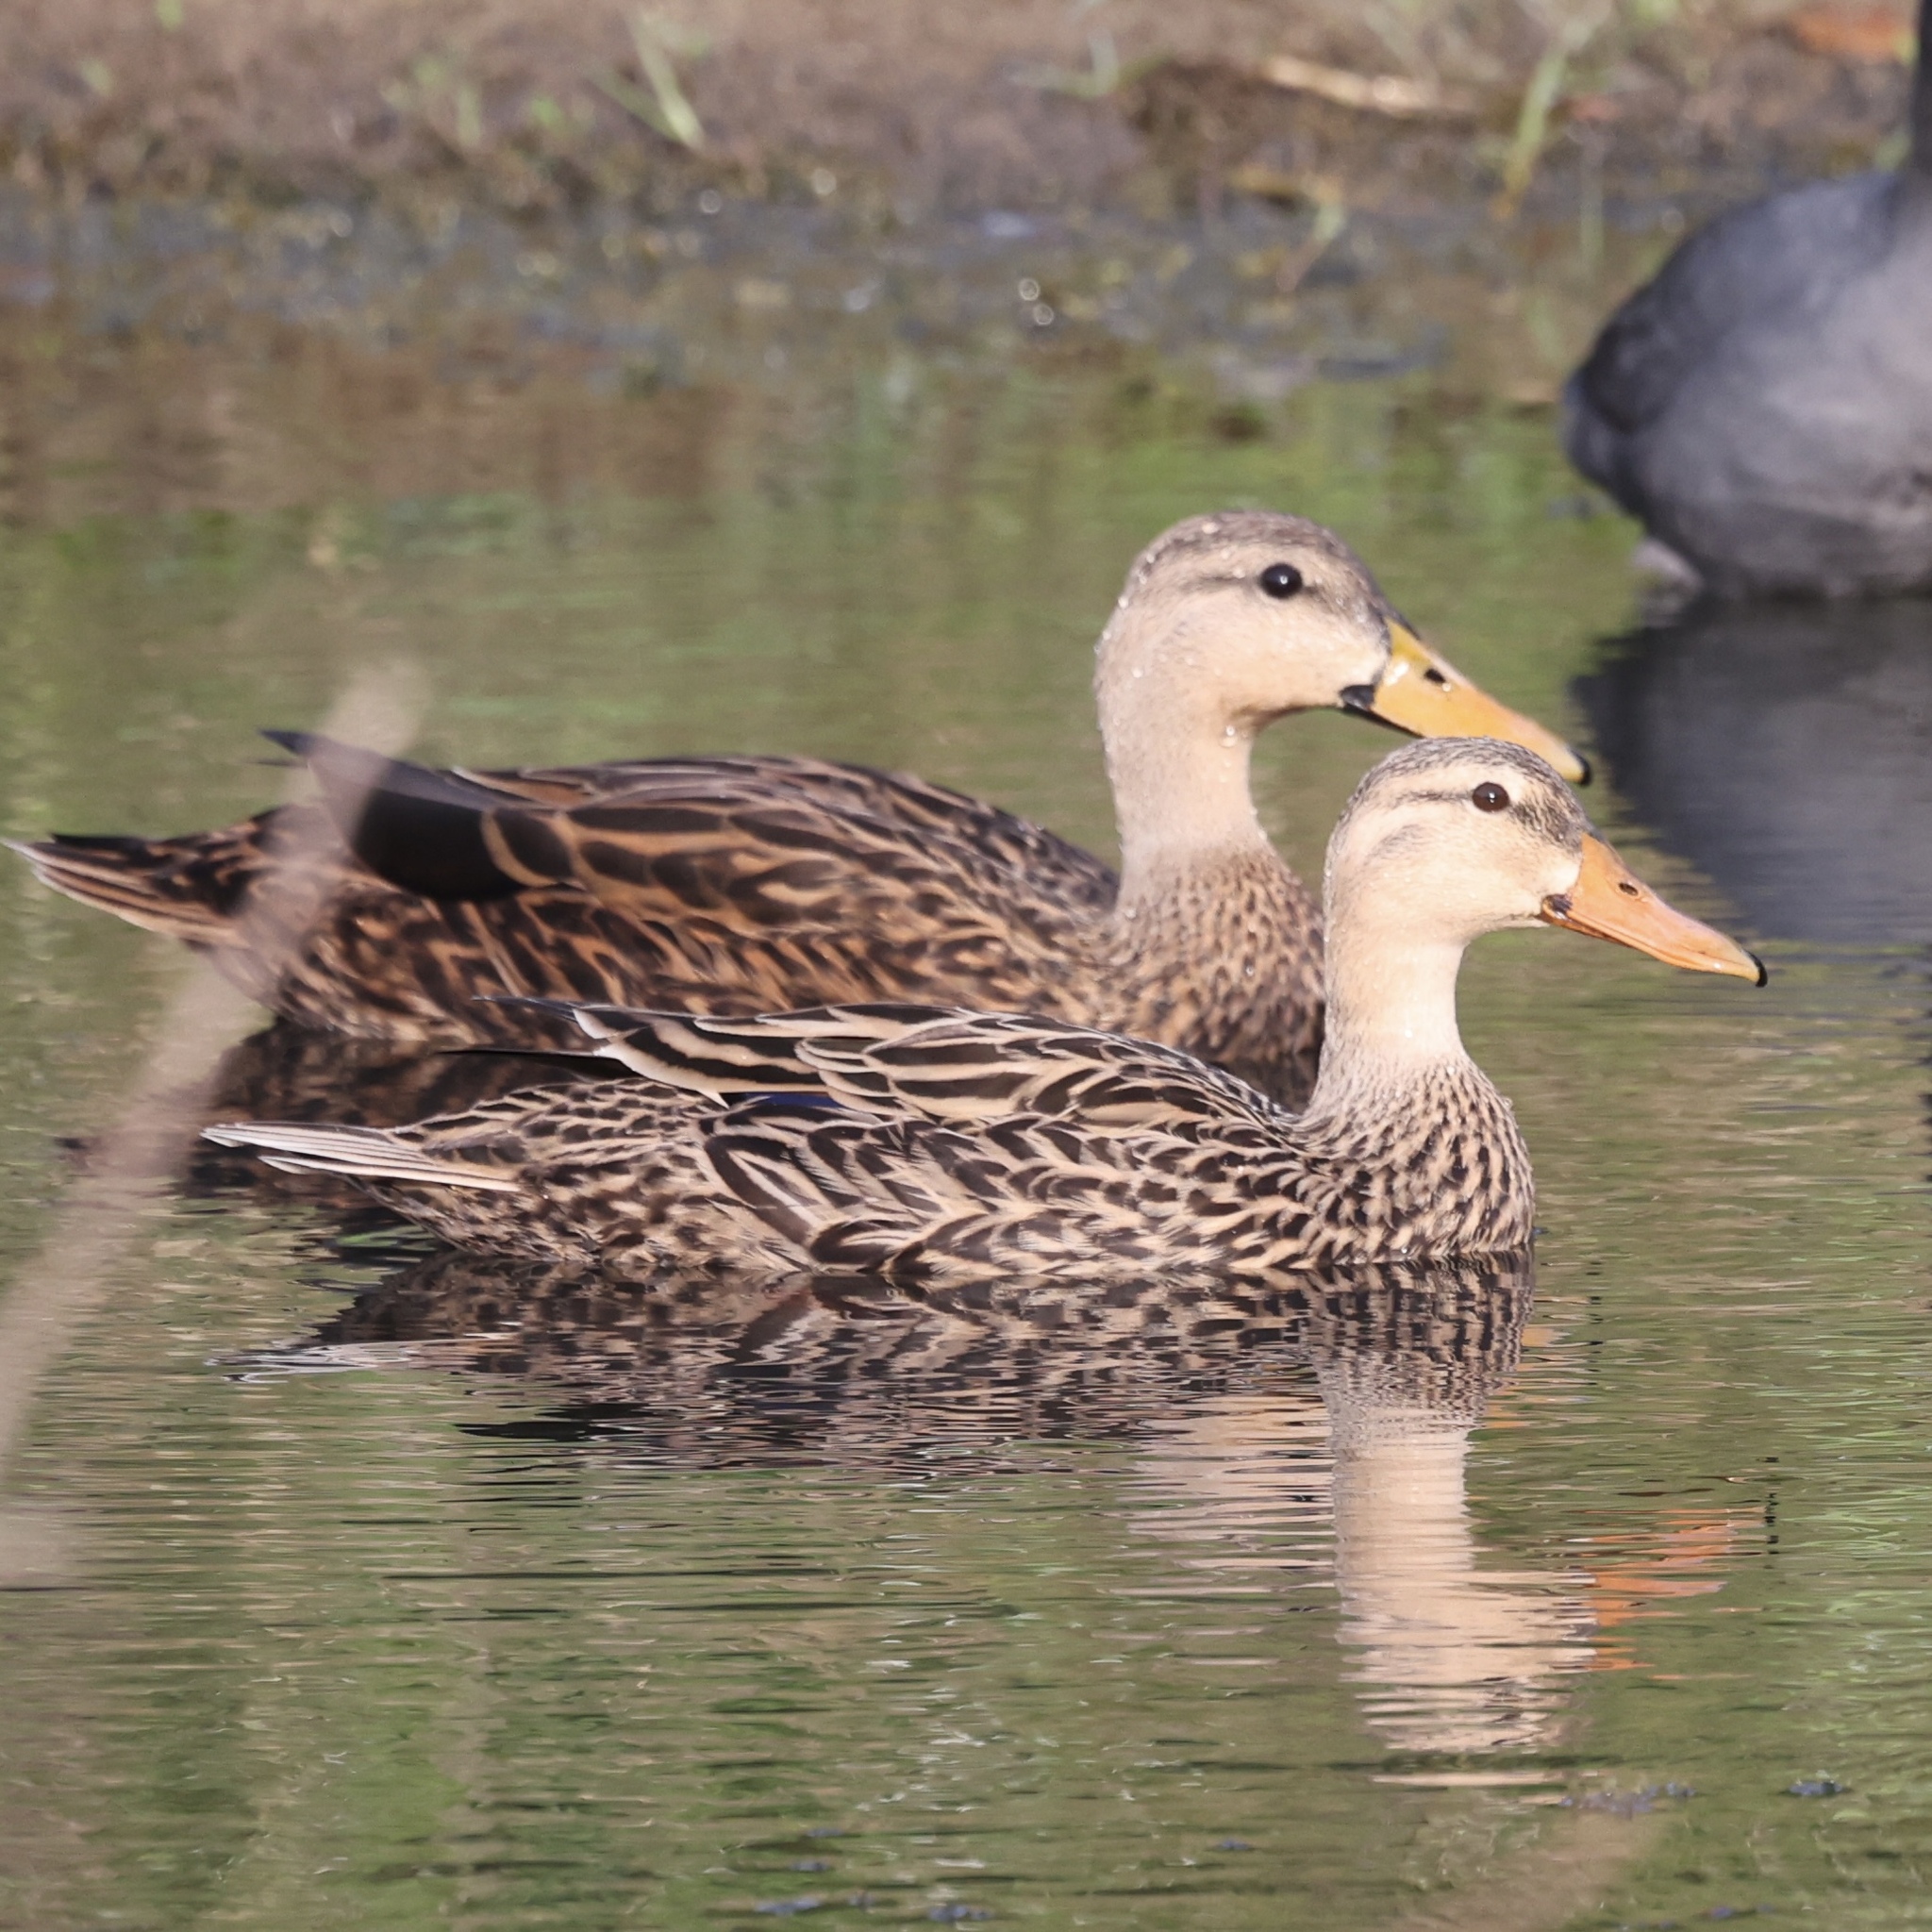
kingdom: Animalia
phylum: Chordata
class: Aves
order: Anseriformes
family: Anatidae
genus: Anas
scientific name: Anas fulvigula
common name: Mottled duck
